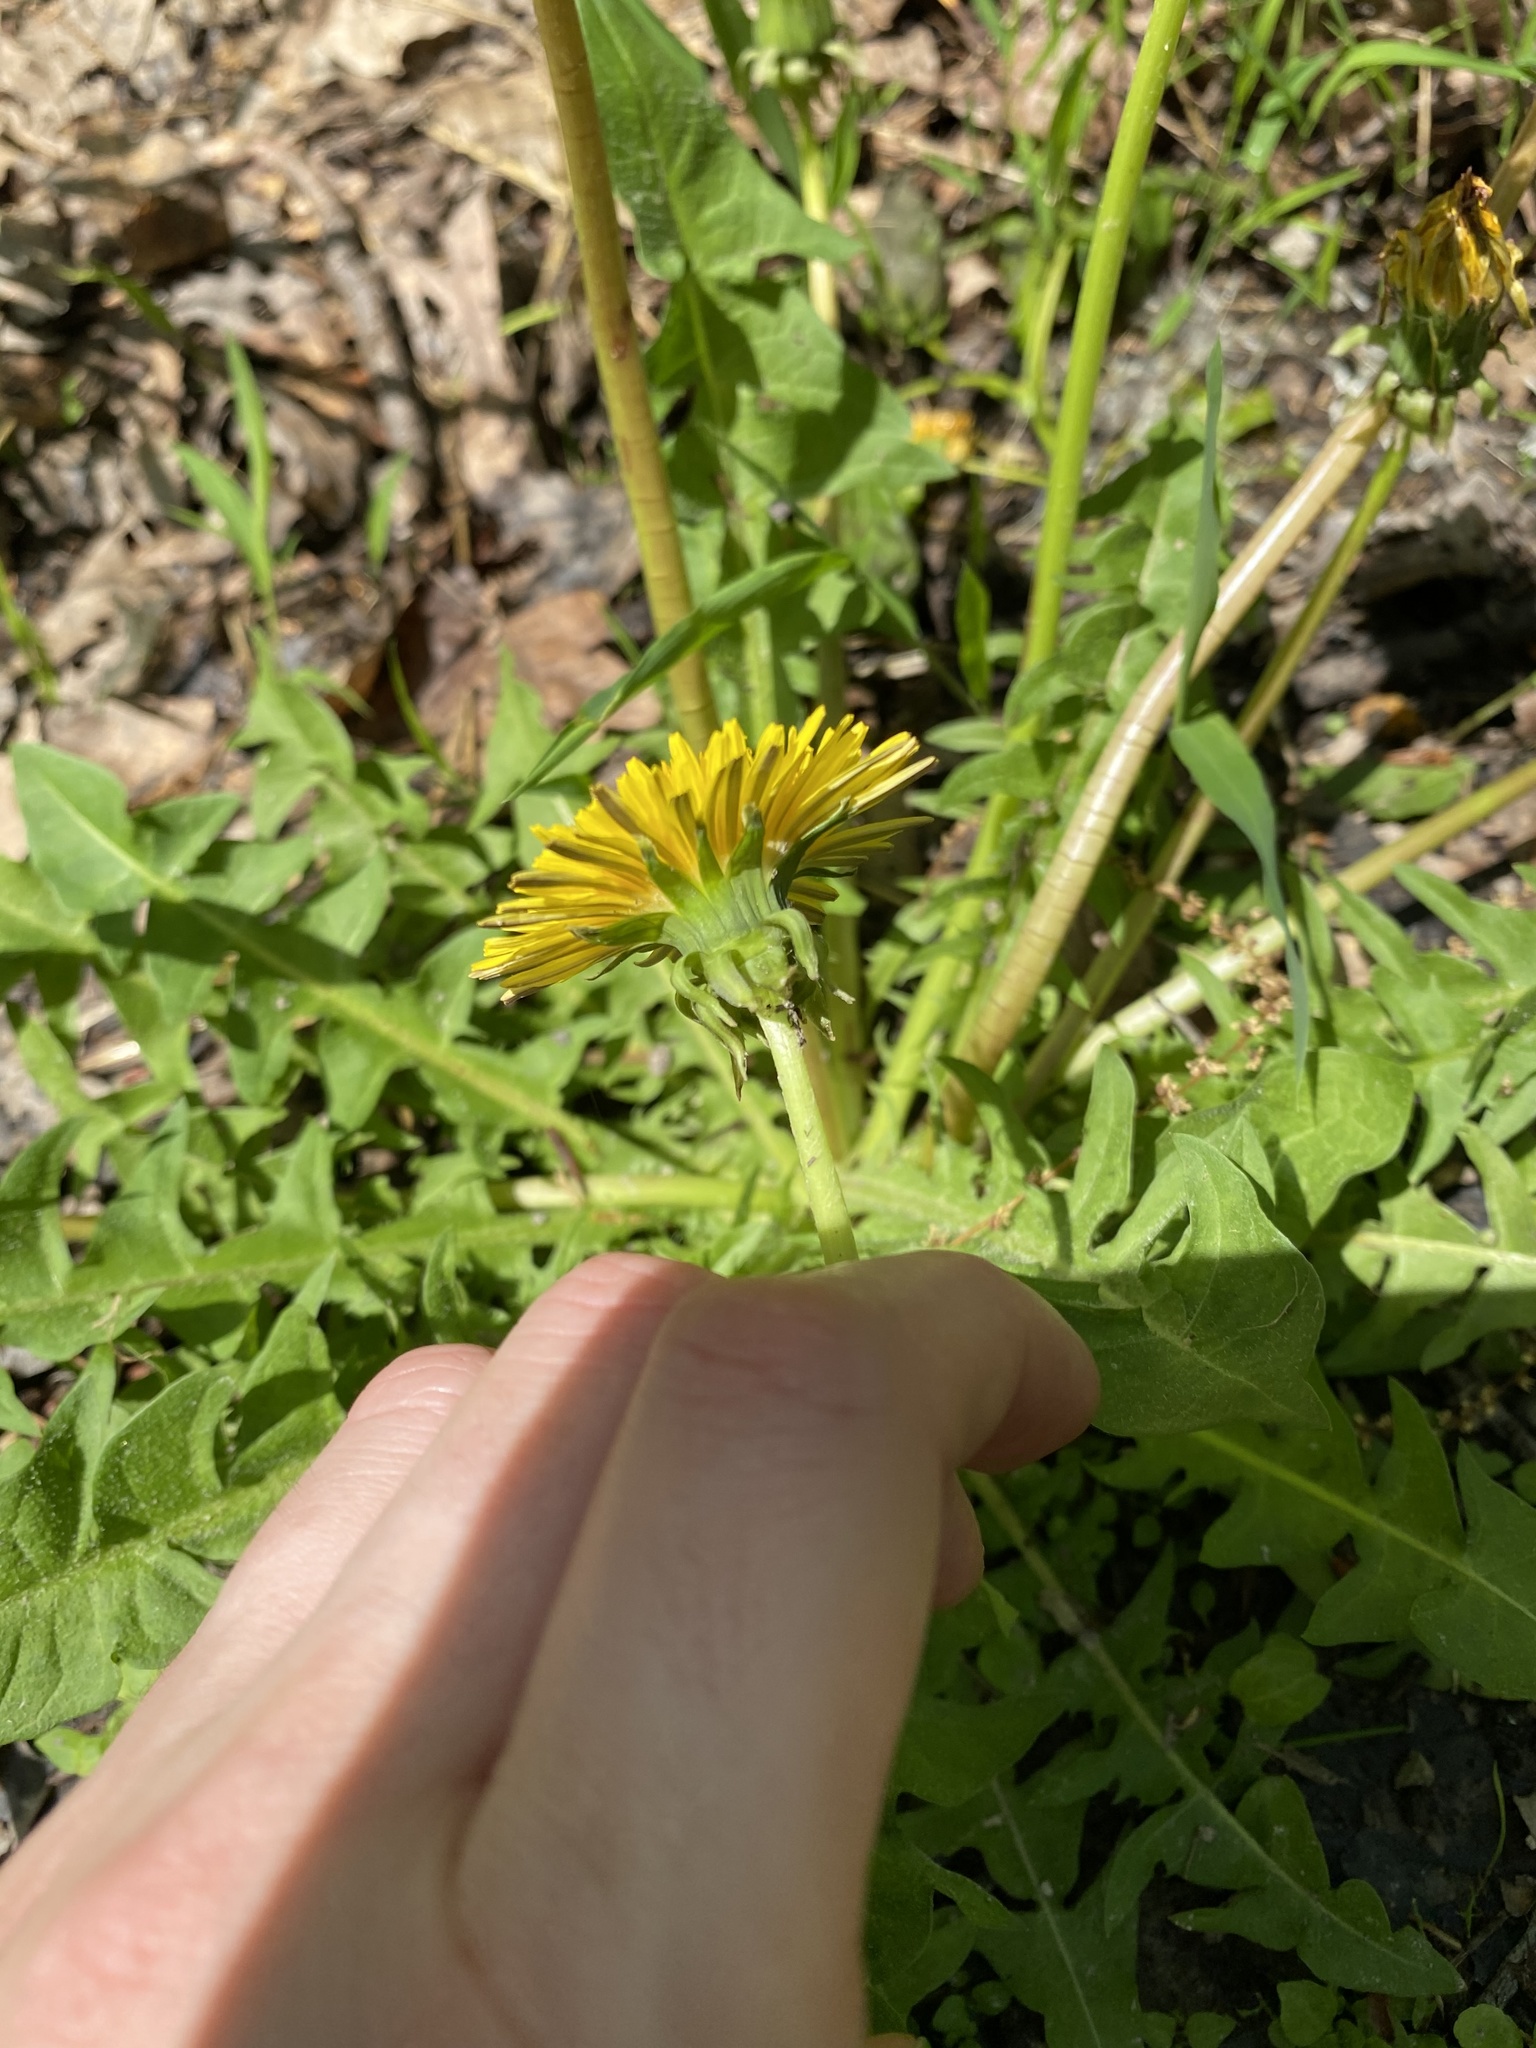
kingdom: Plantae
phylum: Tracheophyta
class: Magnoliopsida
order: Asterales
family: Asteraceae
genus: Taraxacum
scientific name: Taraxacum officinale
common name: Common dandelion
